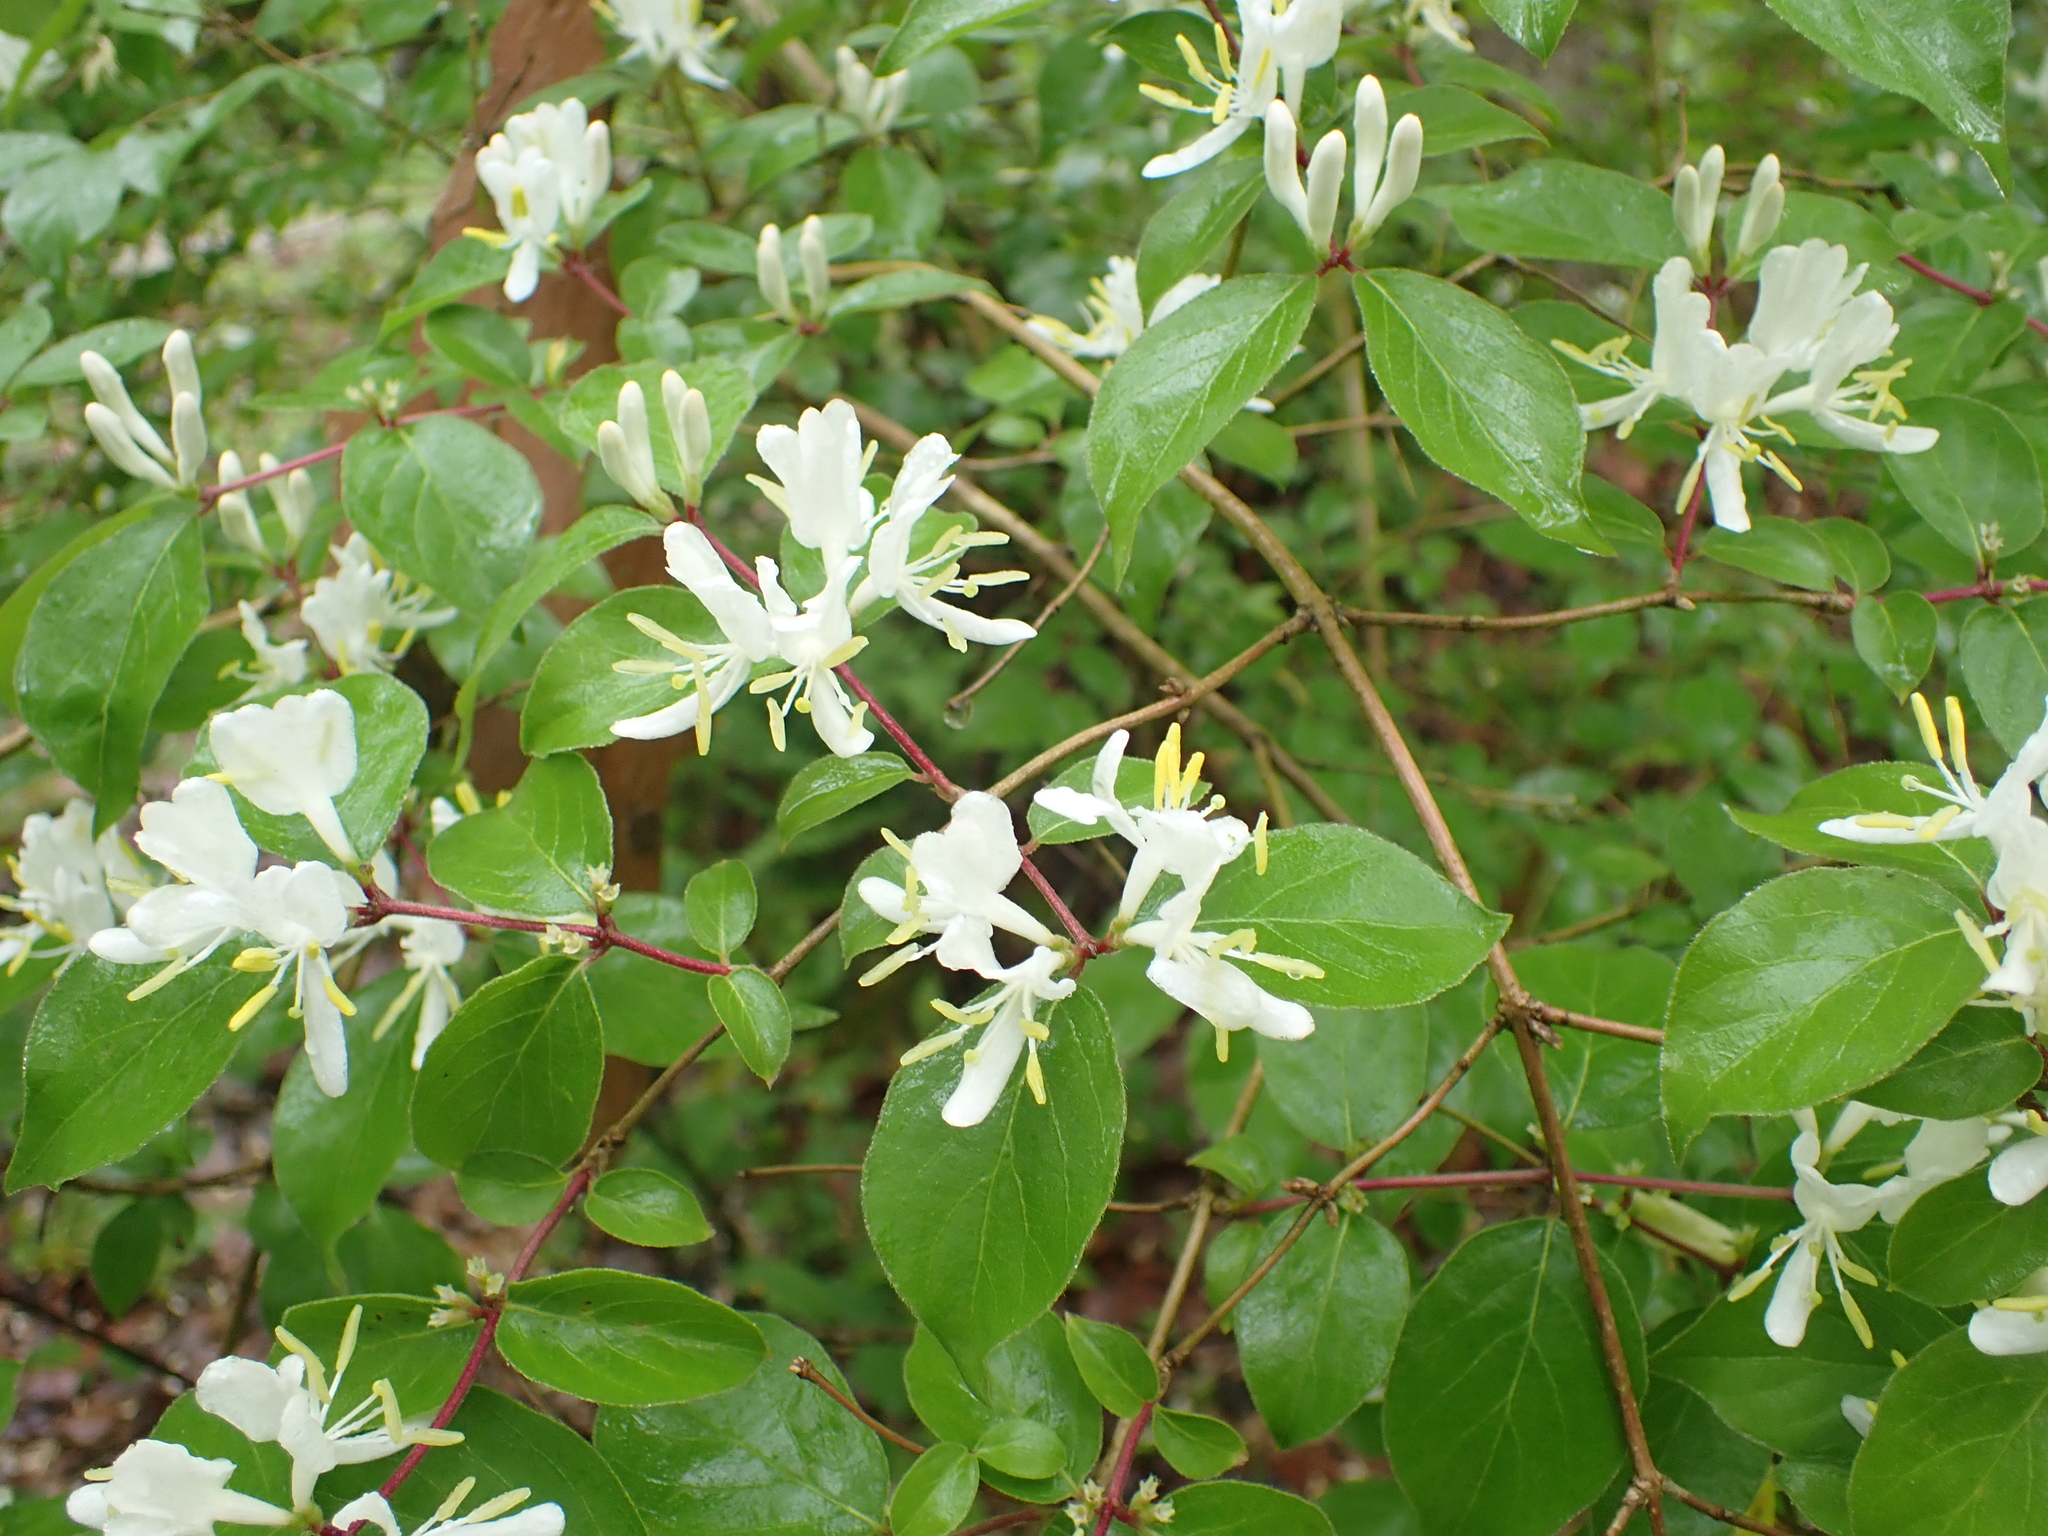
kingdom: Plantae
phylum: Tracheophyta
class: Magnoliopsida
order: Dipsacales
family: Caprifoliaceae
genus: Lonicera
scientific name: Lonicera maackii
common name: Amur honeysuckle
